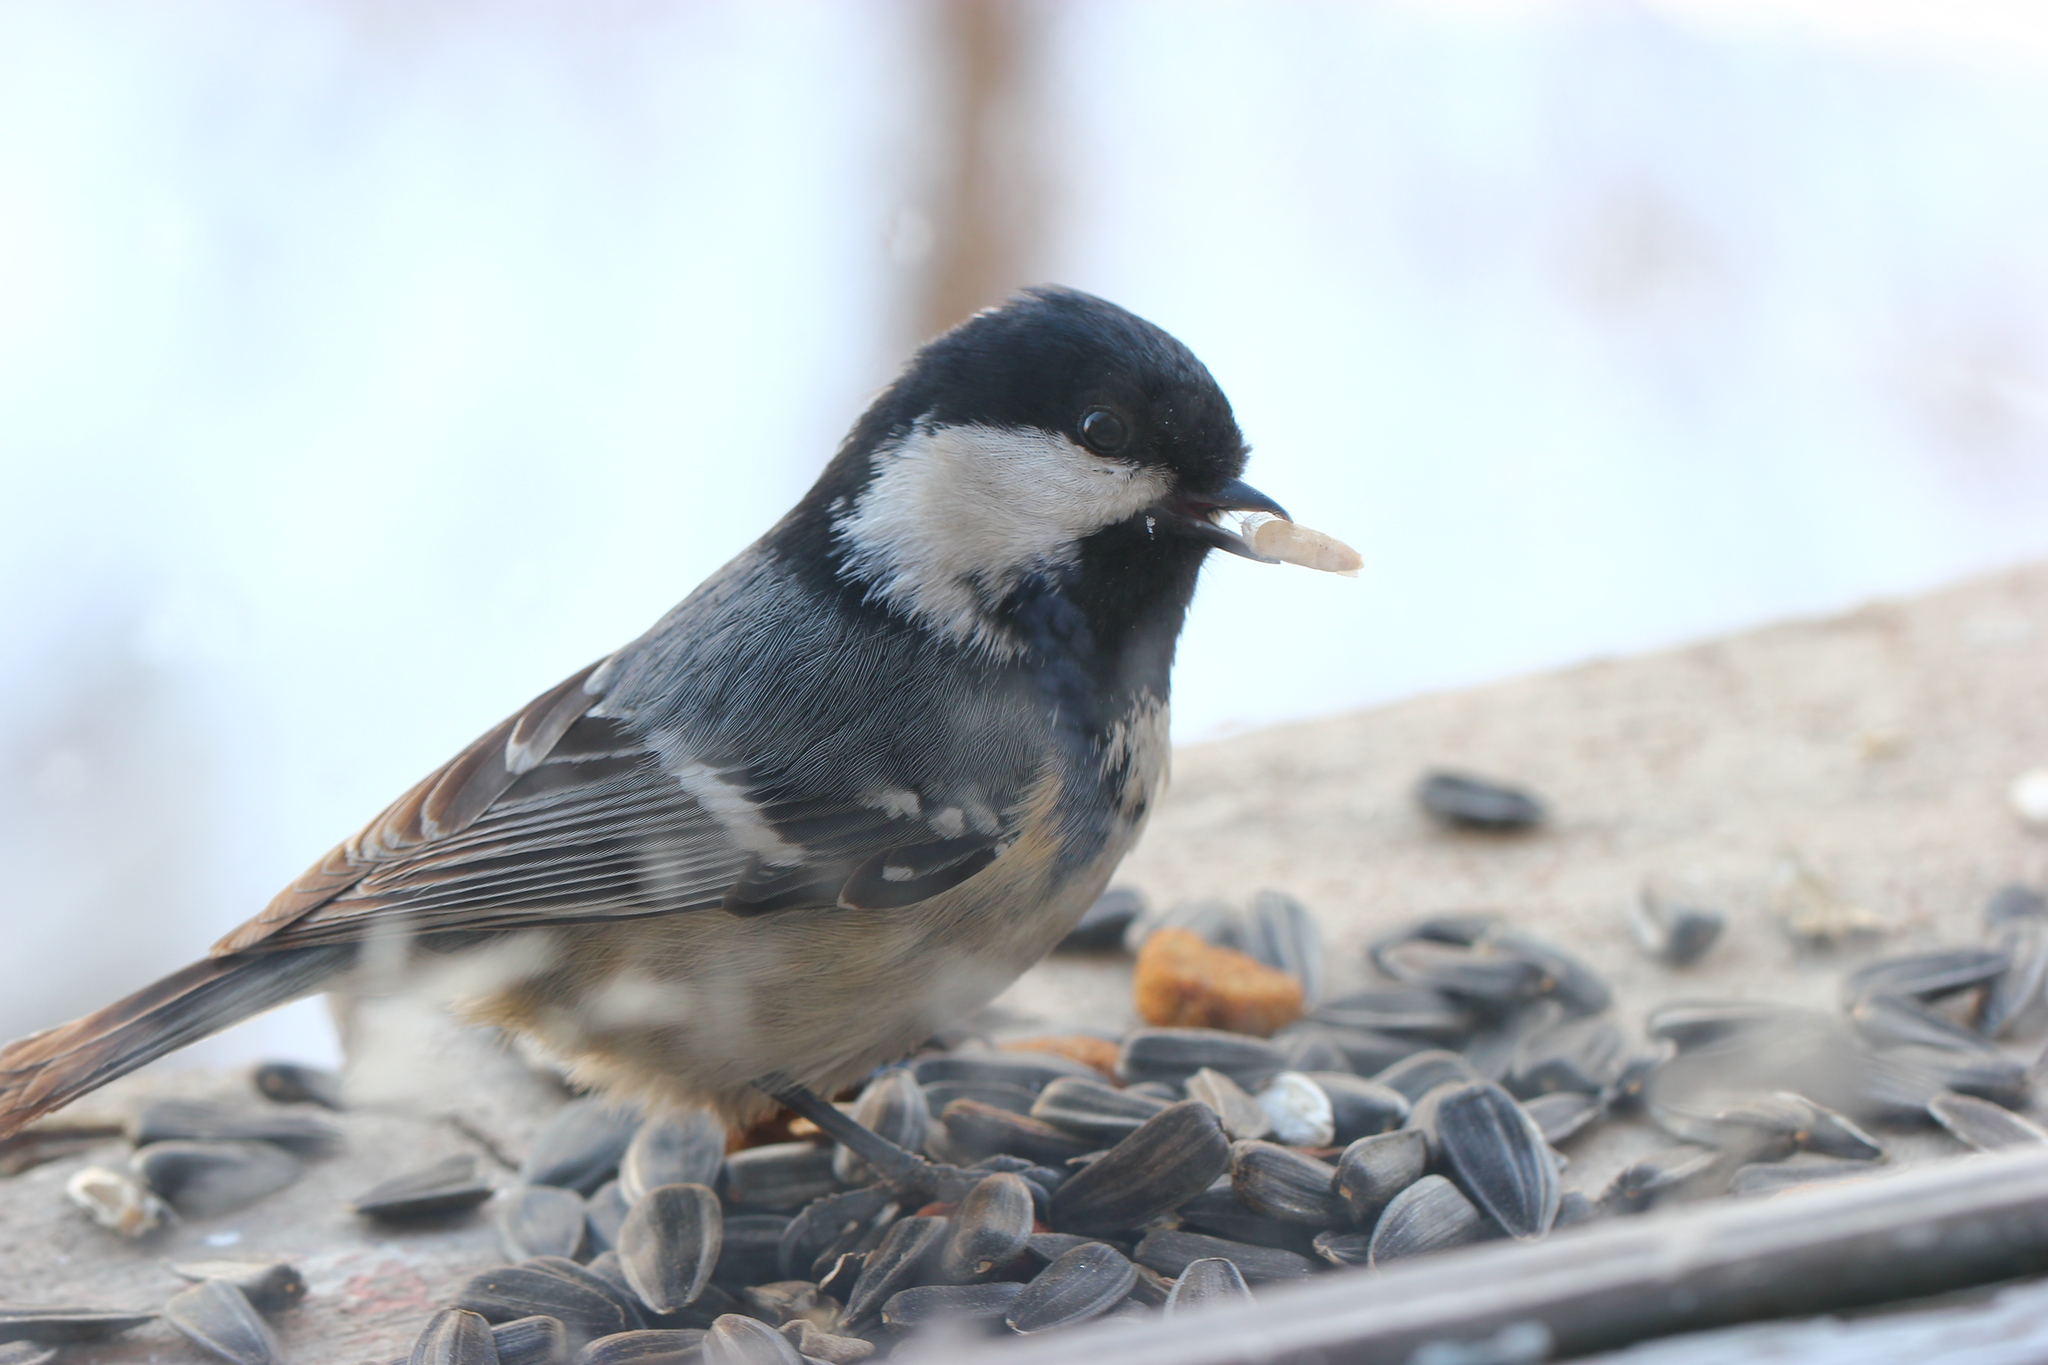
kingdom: Animalia
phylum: Chordata
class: Aves
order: Passeriformes
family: Paridae
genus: Periparus
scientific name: Periparus ater
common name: Coal tit
